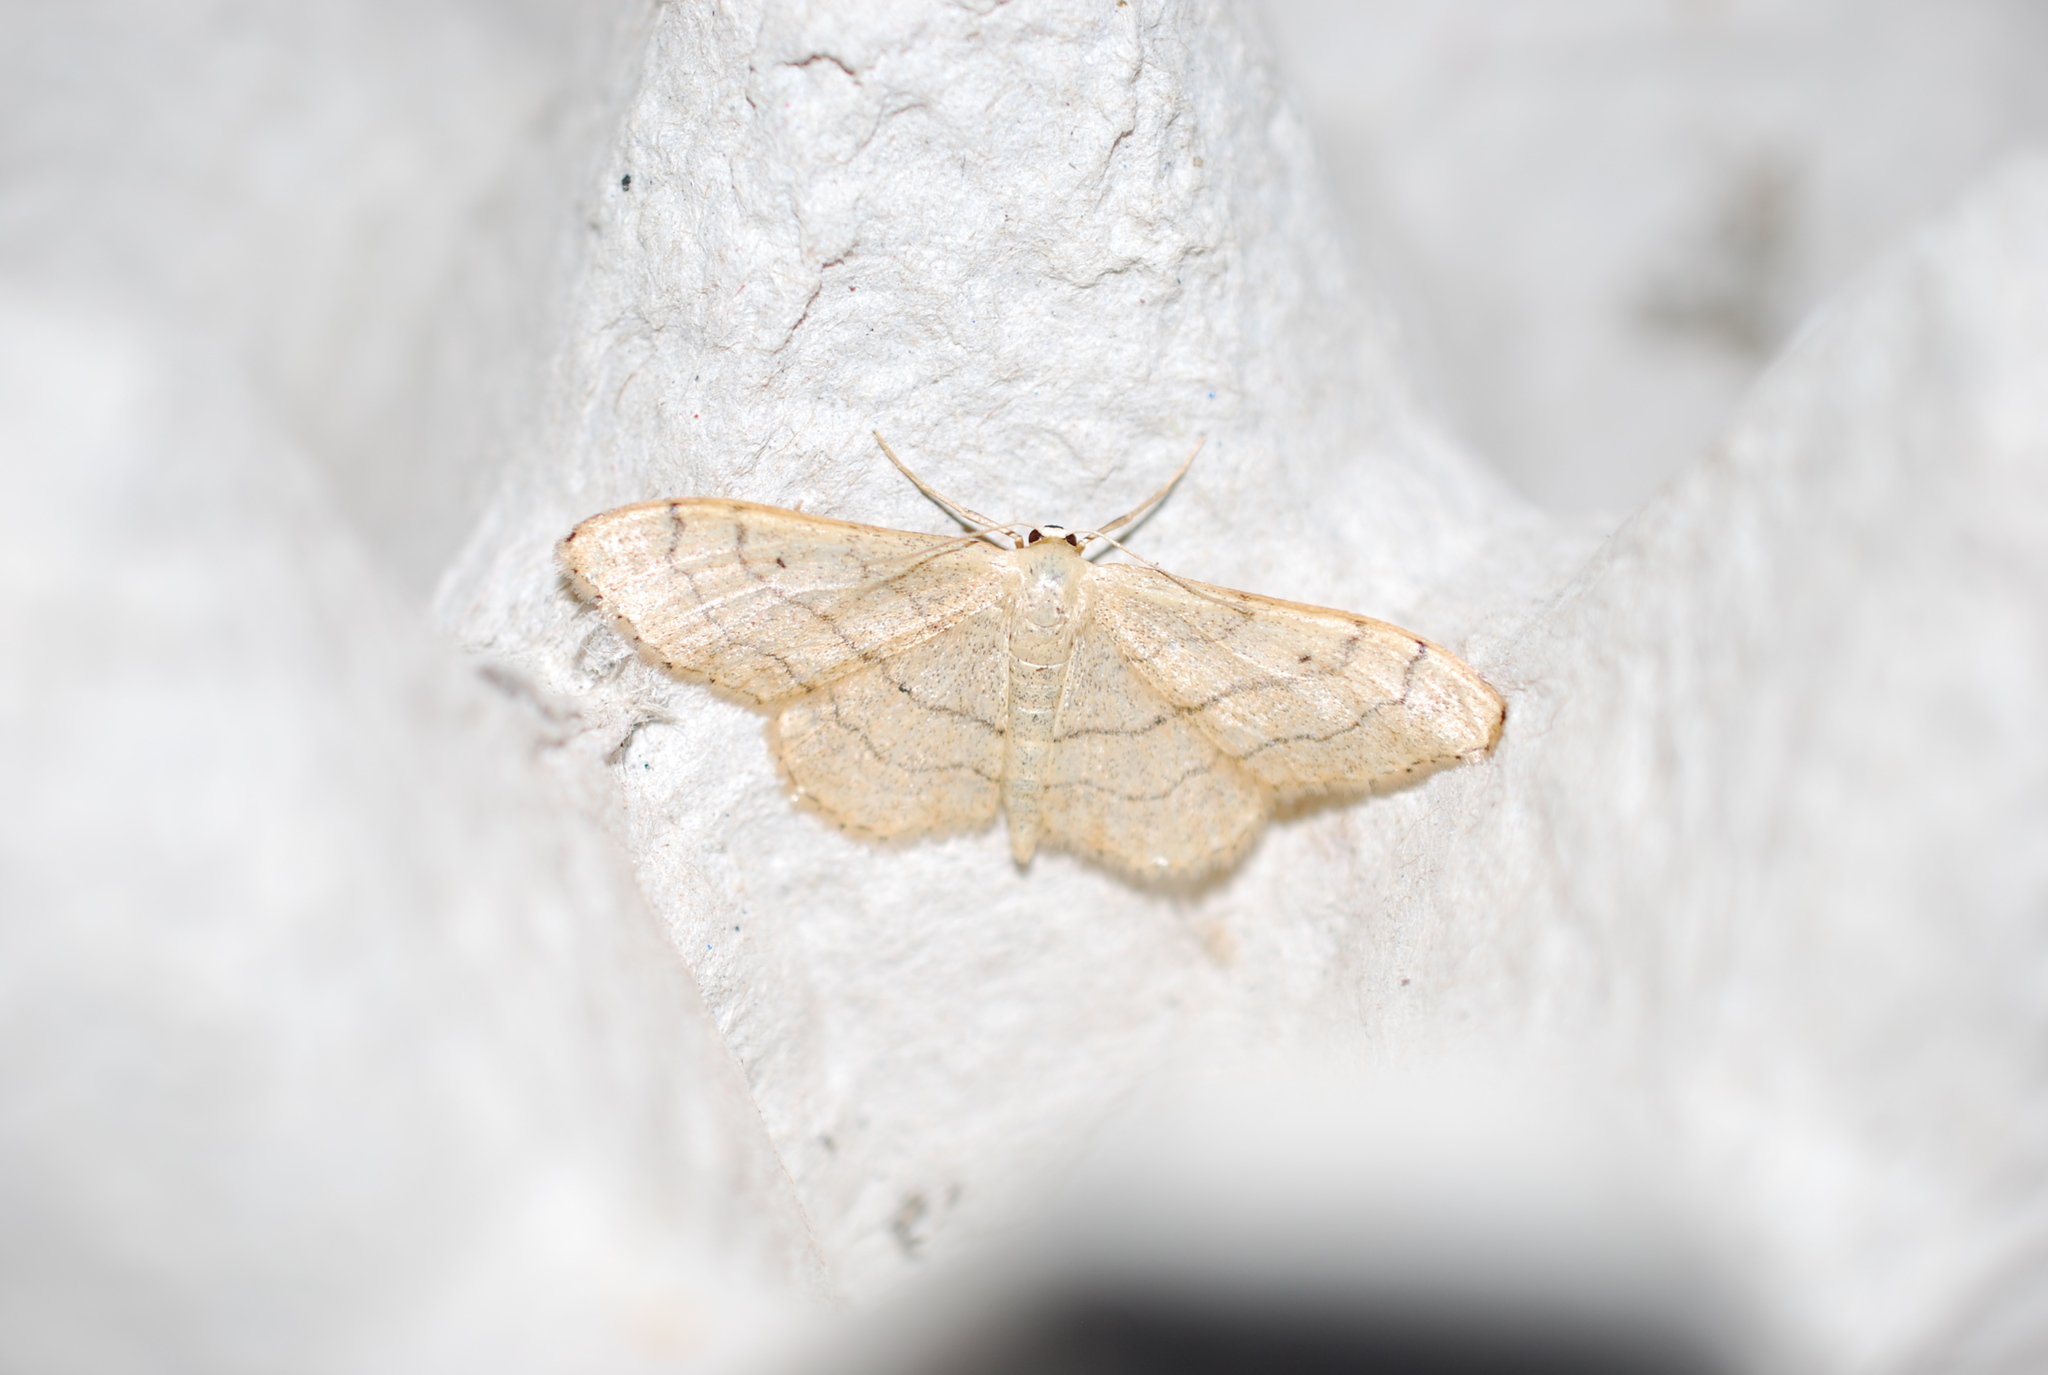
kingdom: Animalia
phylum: Arthropoda
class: Insecta
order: Lepidoptera
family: Geometridae
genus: Idaea
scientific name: Idaea aversata
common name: Riband wave
